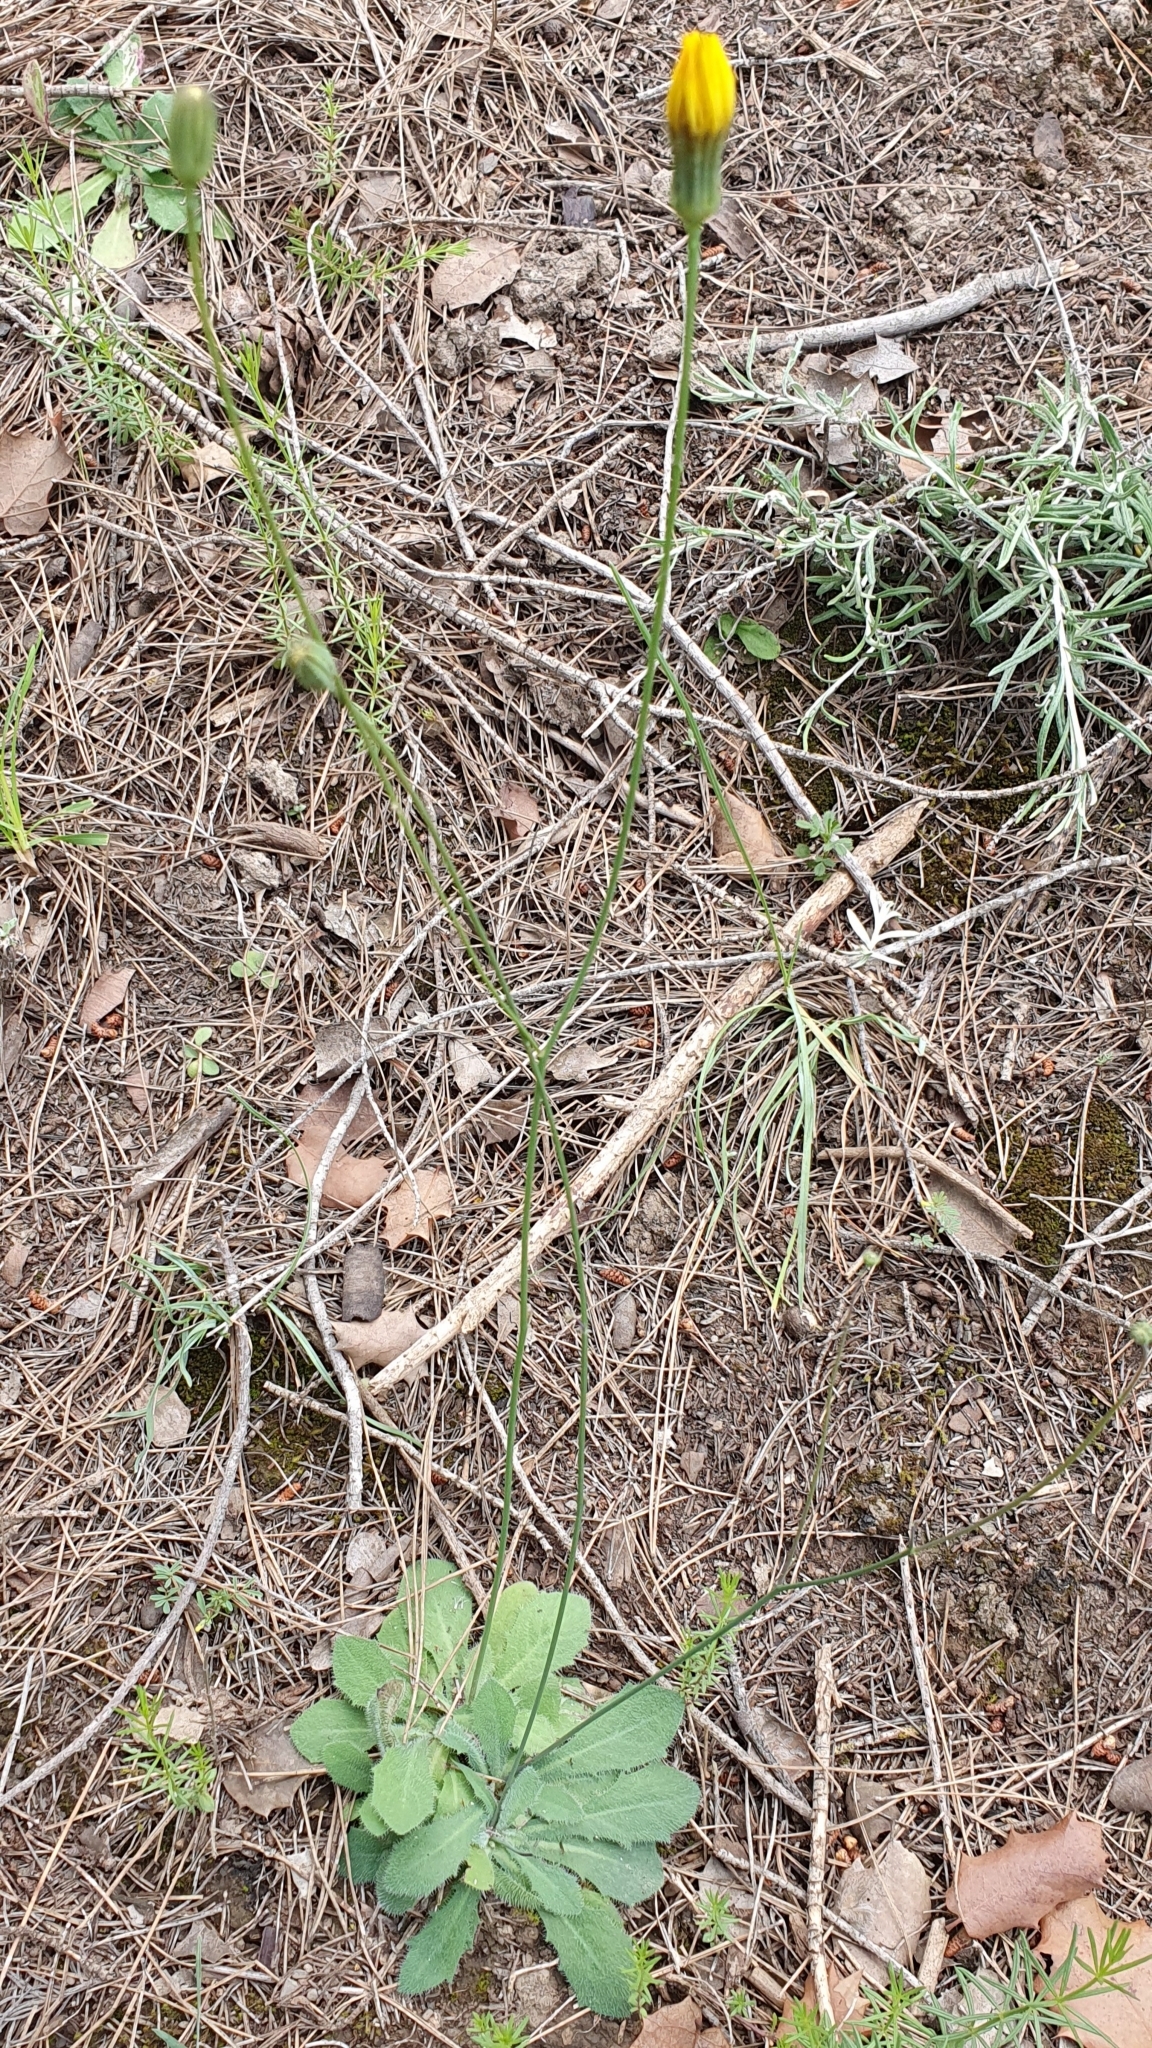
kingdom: Plantae
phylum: Tracheophyta
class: Magnoliopsida
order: Asterales
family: Asteraceae
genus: Achyrophorus
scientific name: Achyrophorus laevigatus
